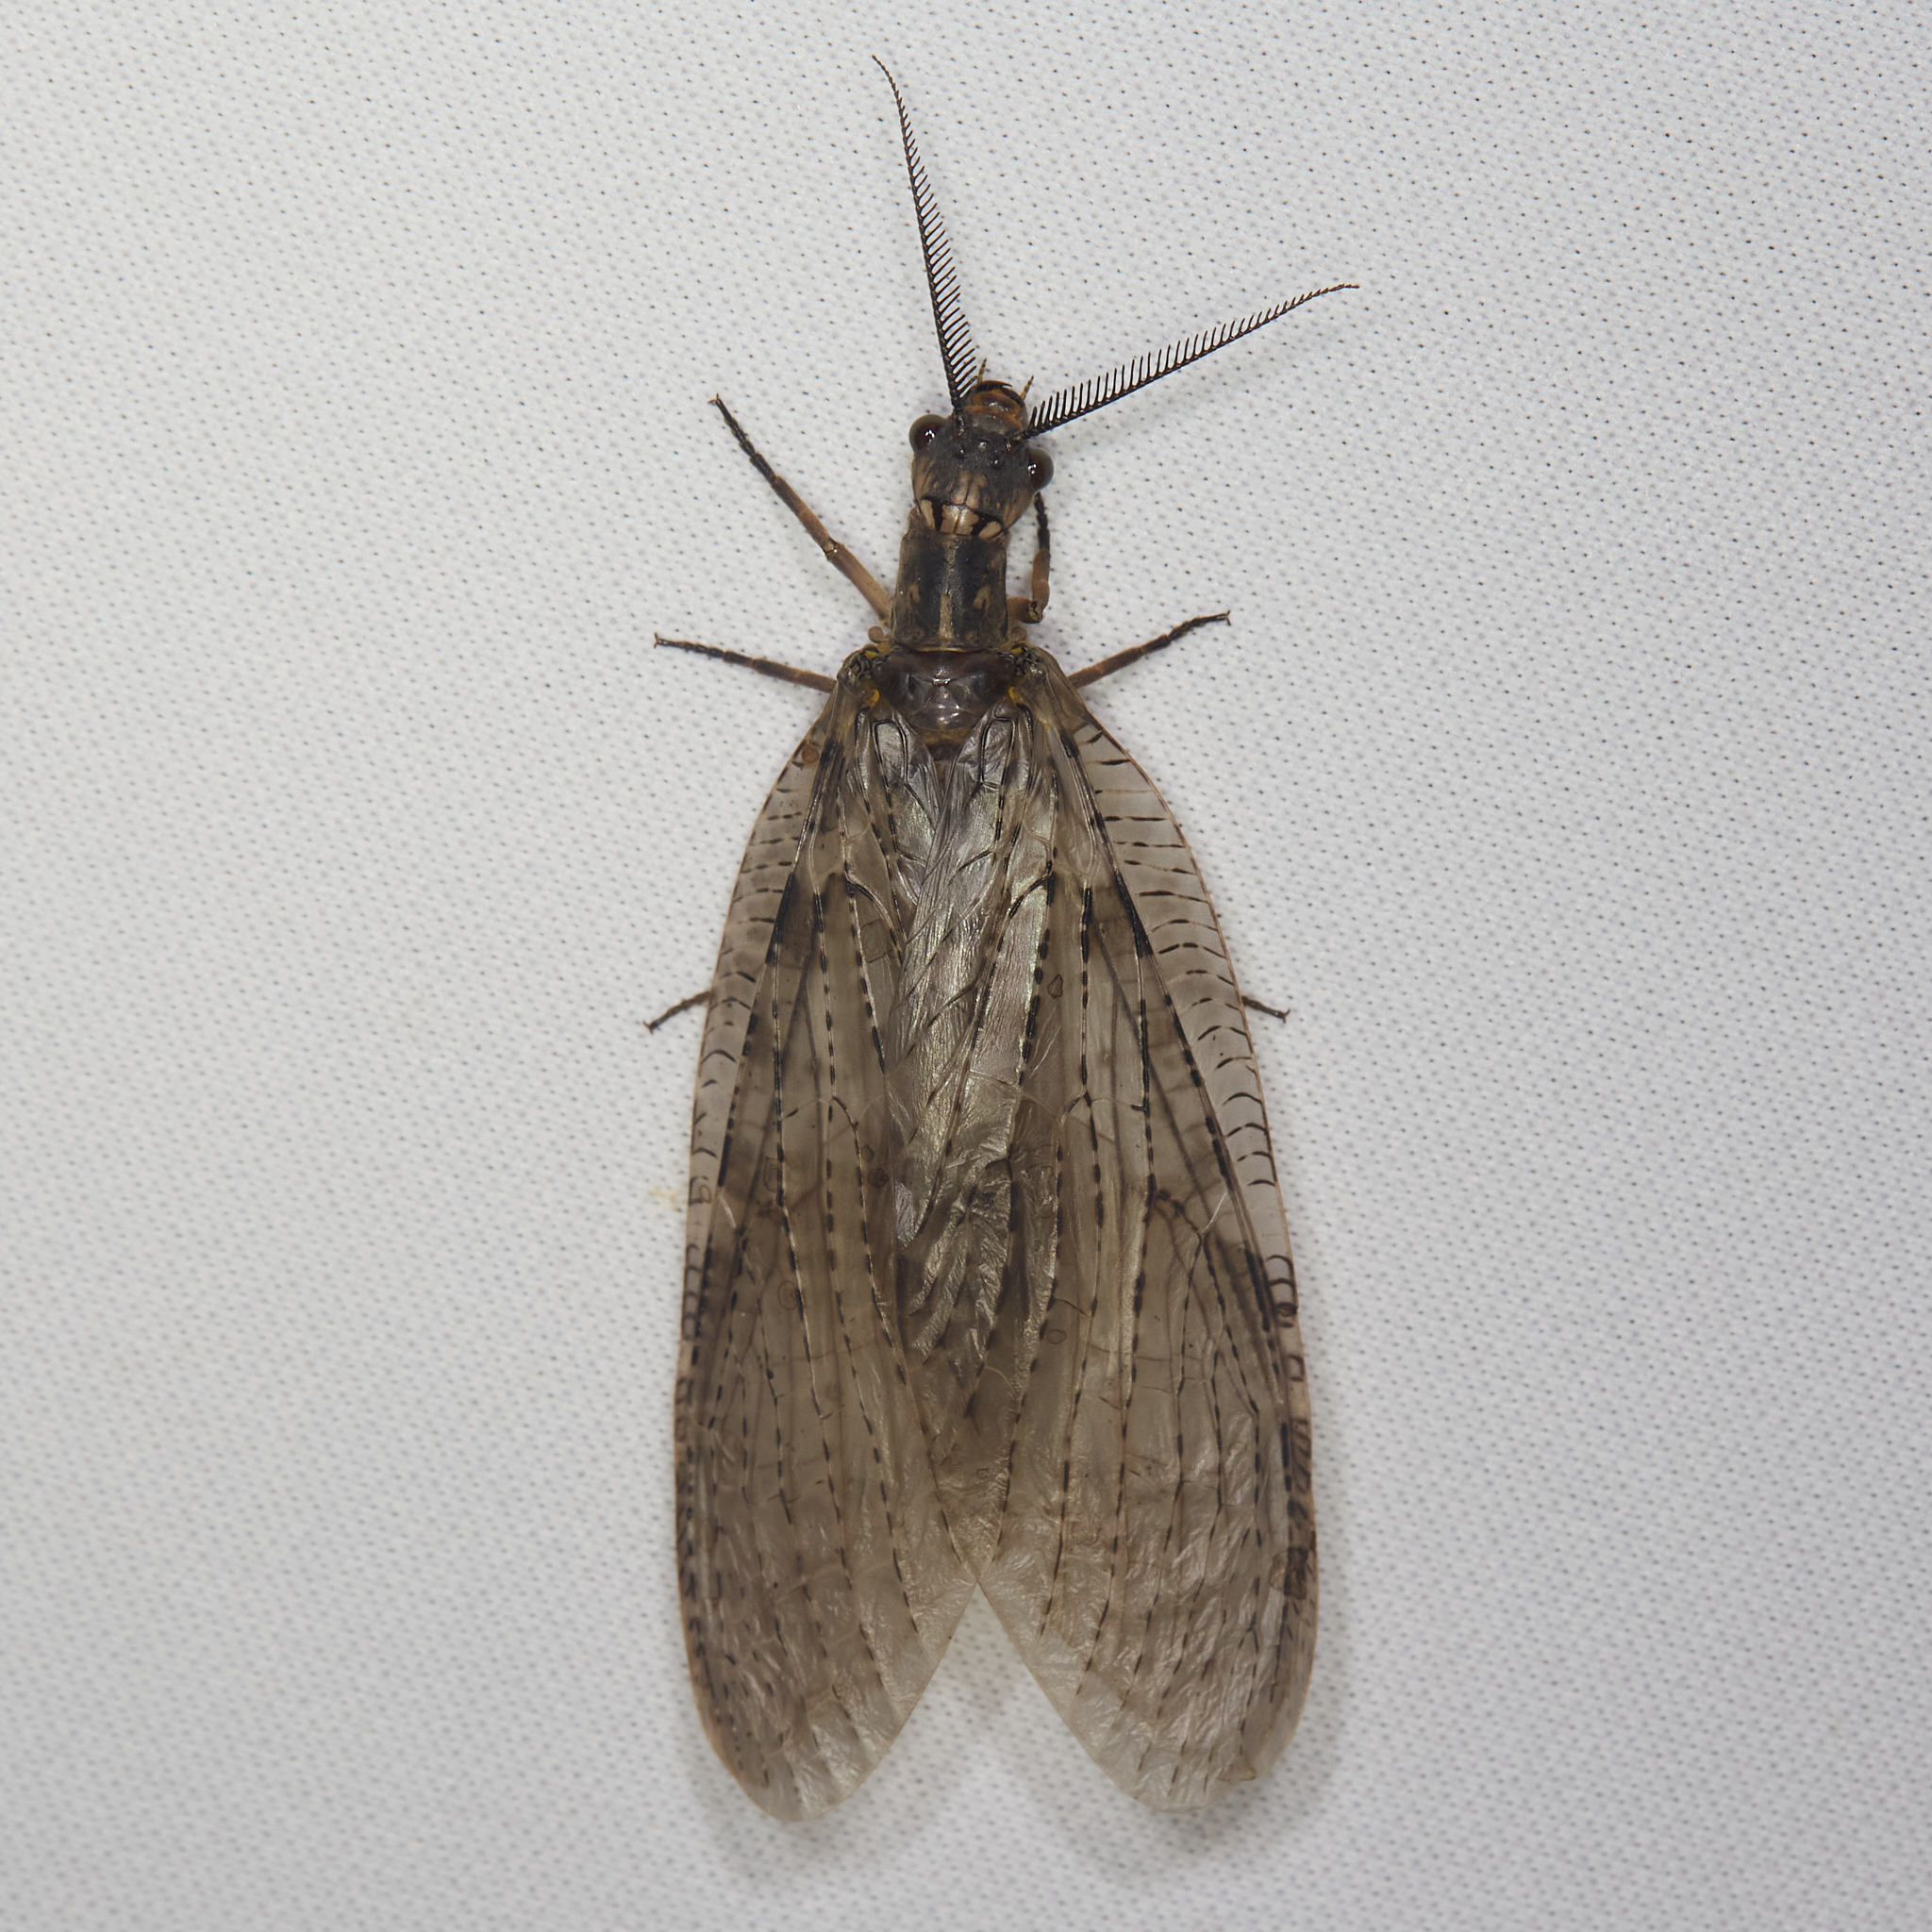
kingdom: Animalia
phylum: Arthropoda
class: Insecta
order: Megaloptera
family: Corydalidae
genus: Chauliodes
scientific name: Chauliodes pectinicornis
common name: Summer fishfly
